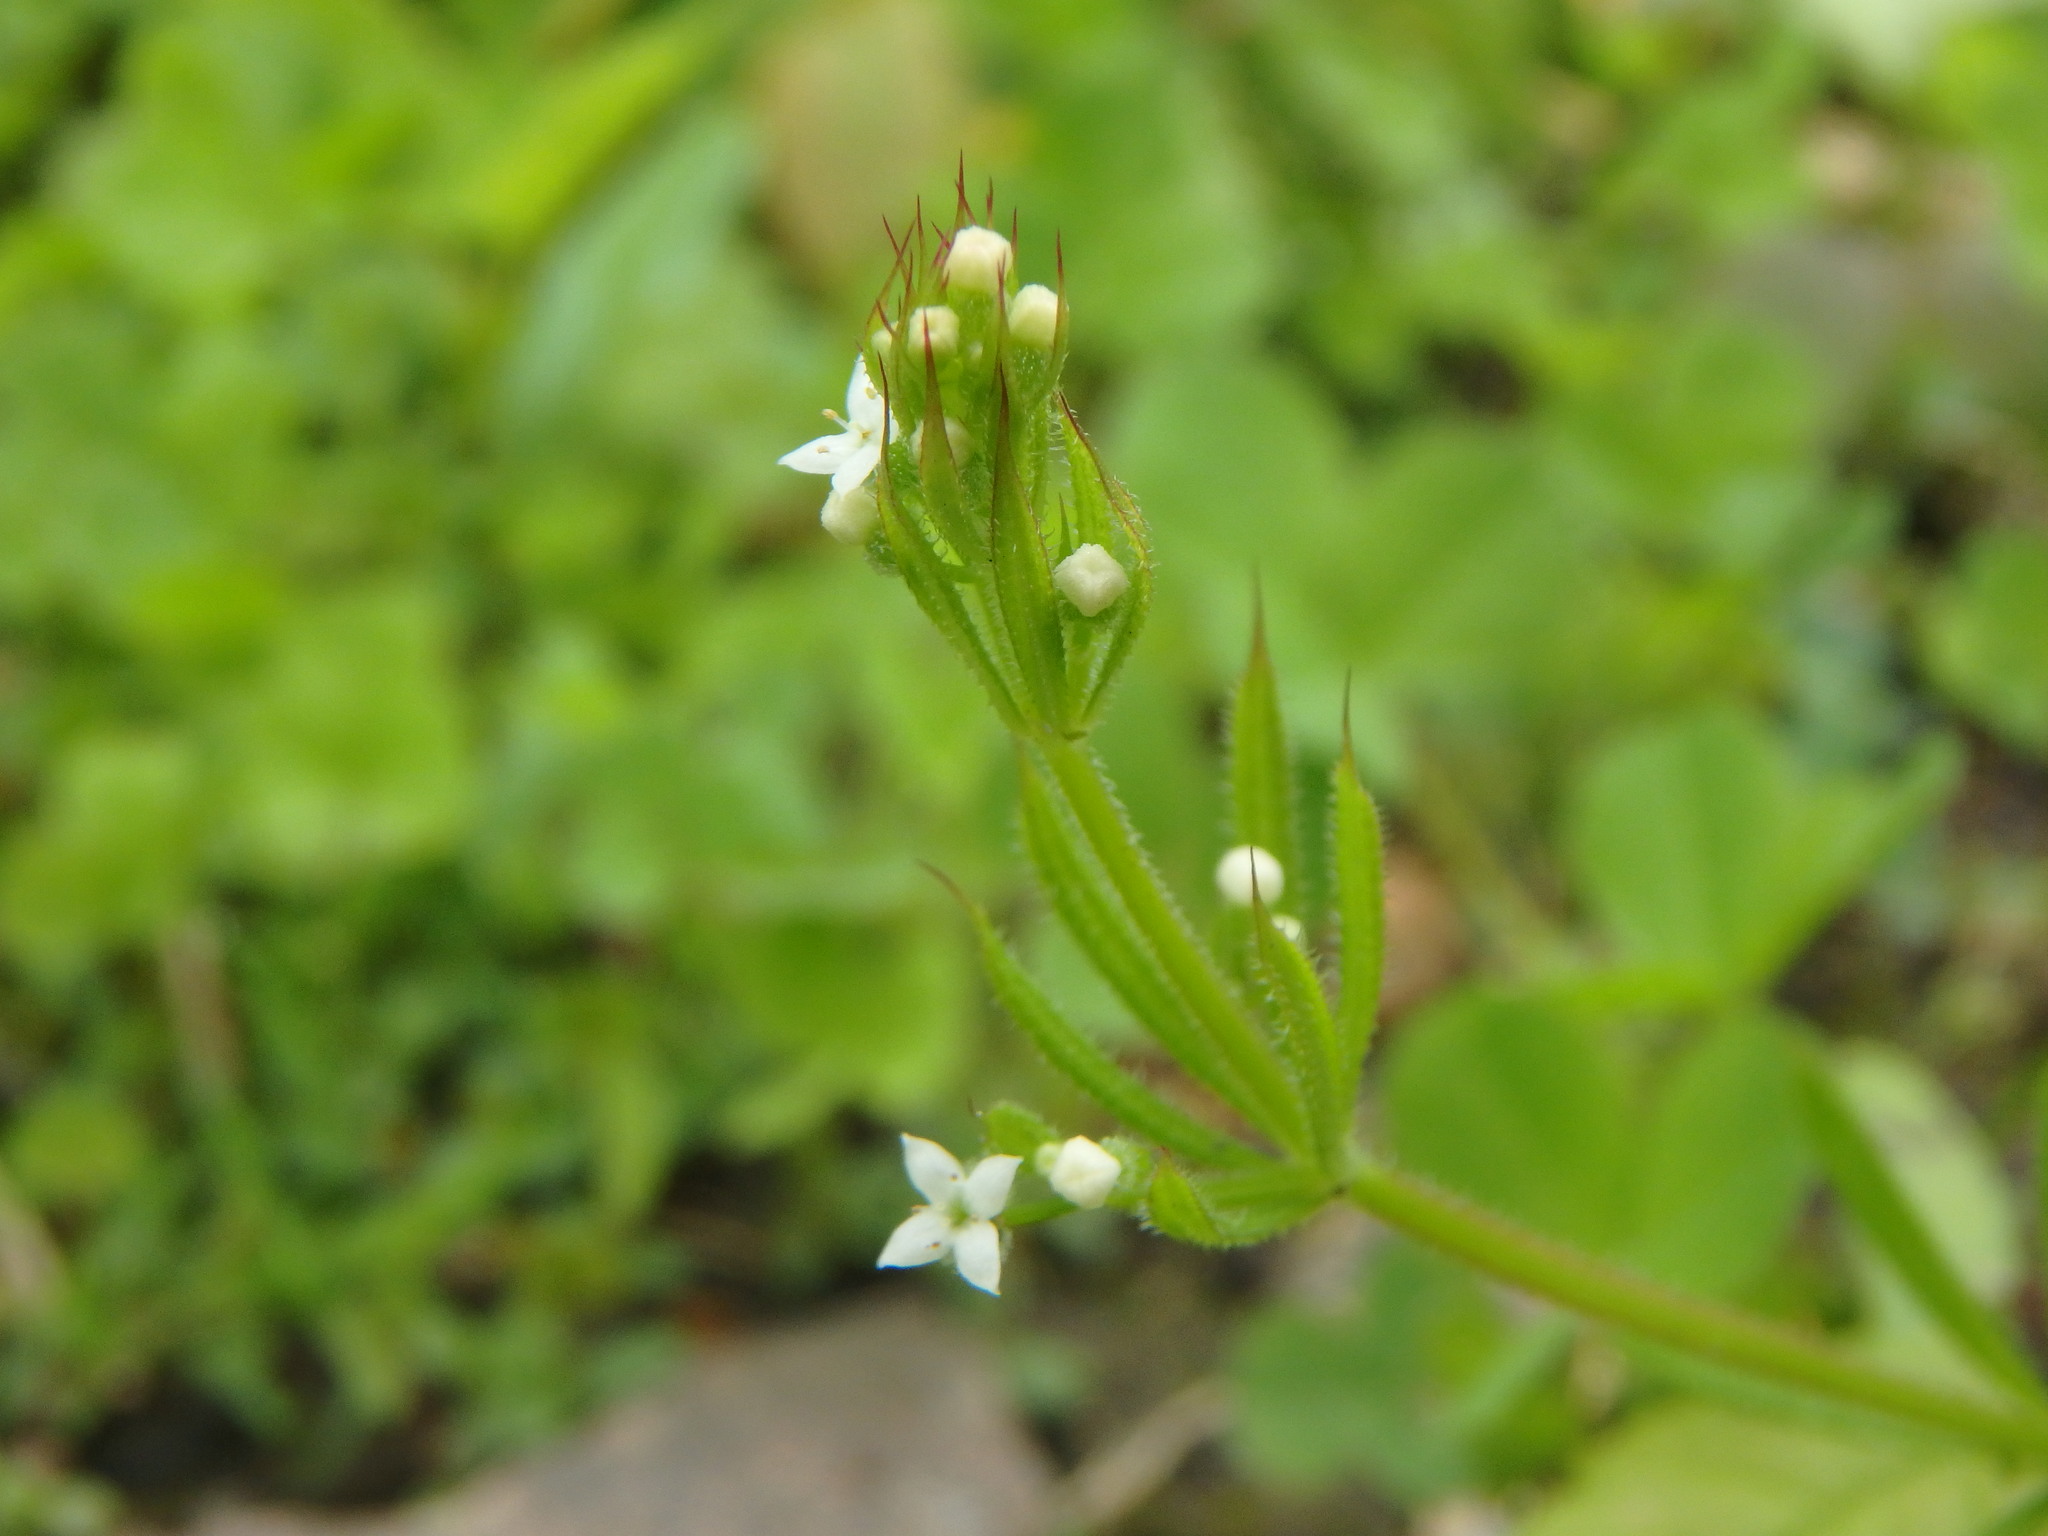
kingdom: Plantae
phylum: Tracheophyta
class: Magnoliopsida
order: Gentianales
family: Rubiaceae
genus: Galium
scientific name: Galium aparine
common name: Cleavers
